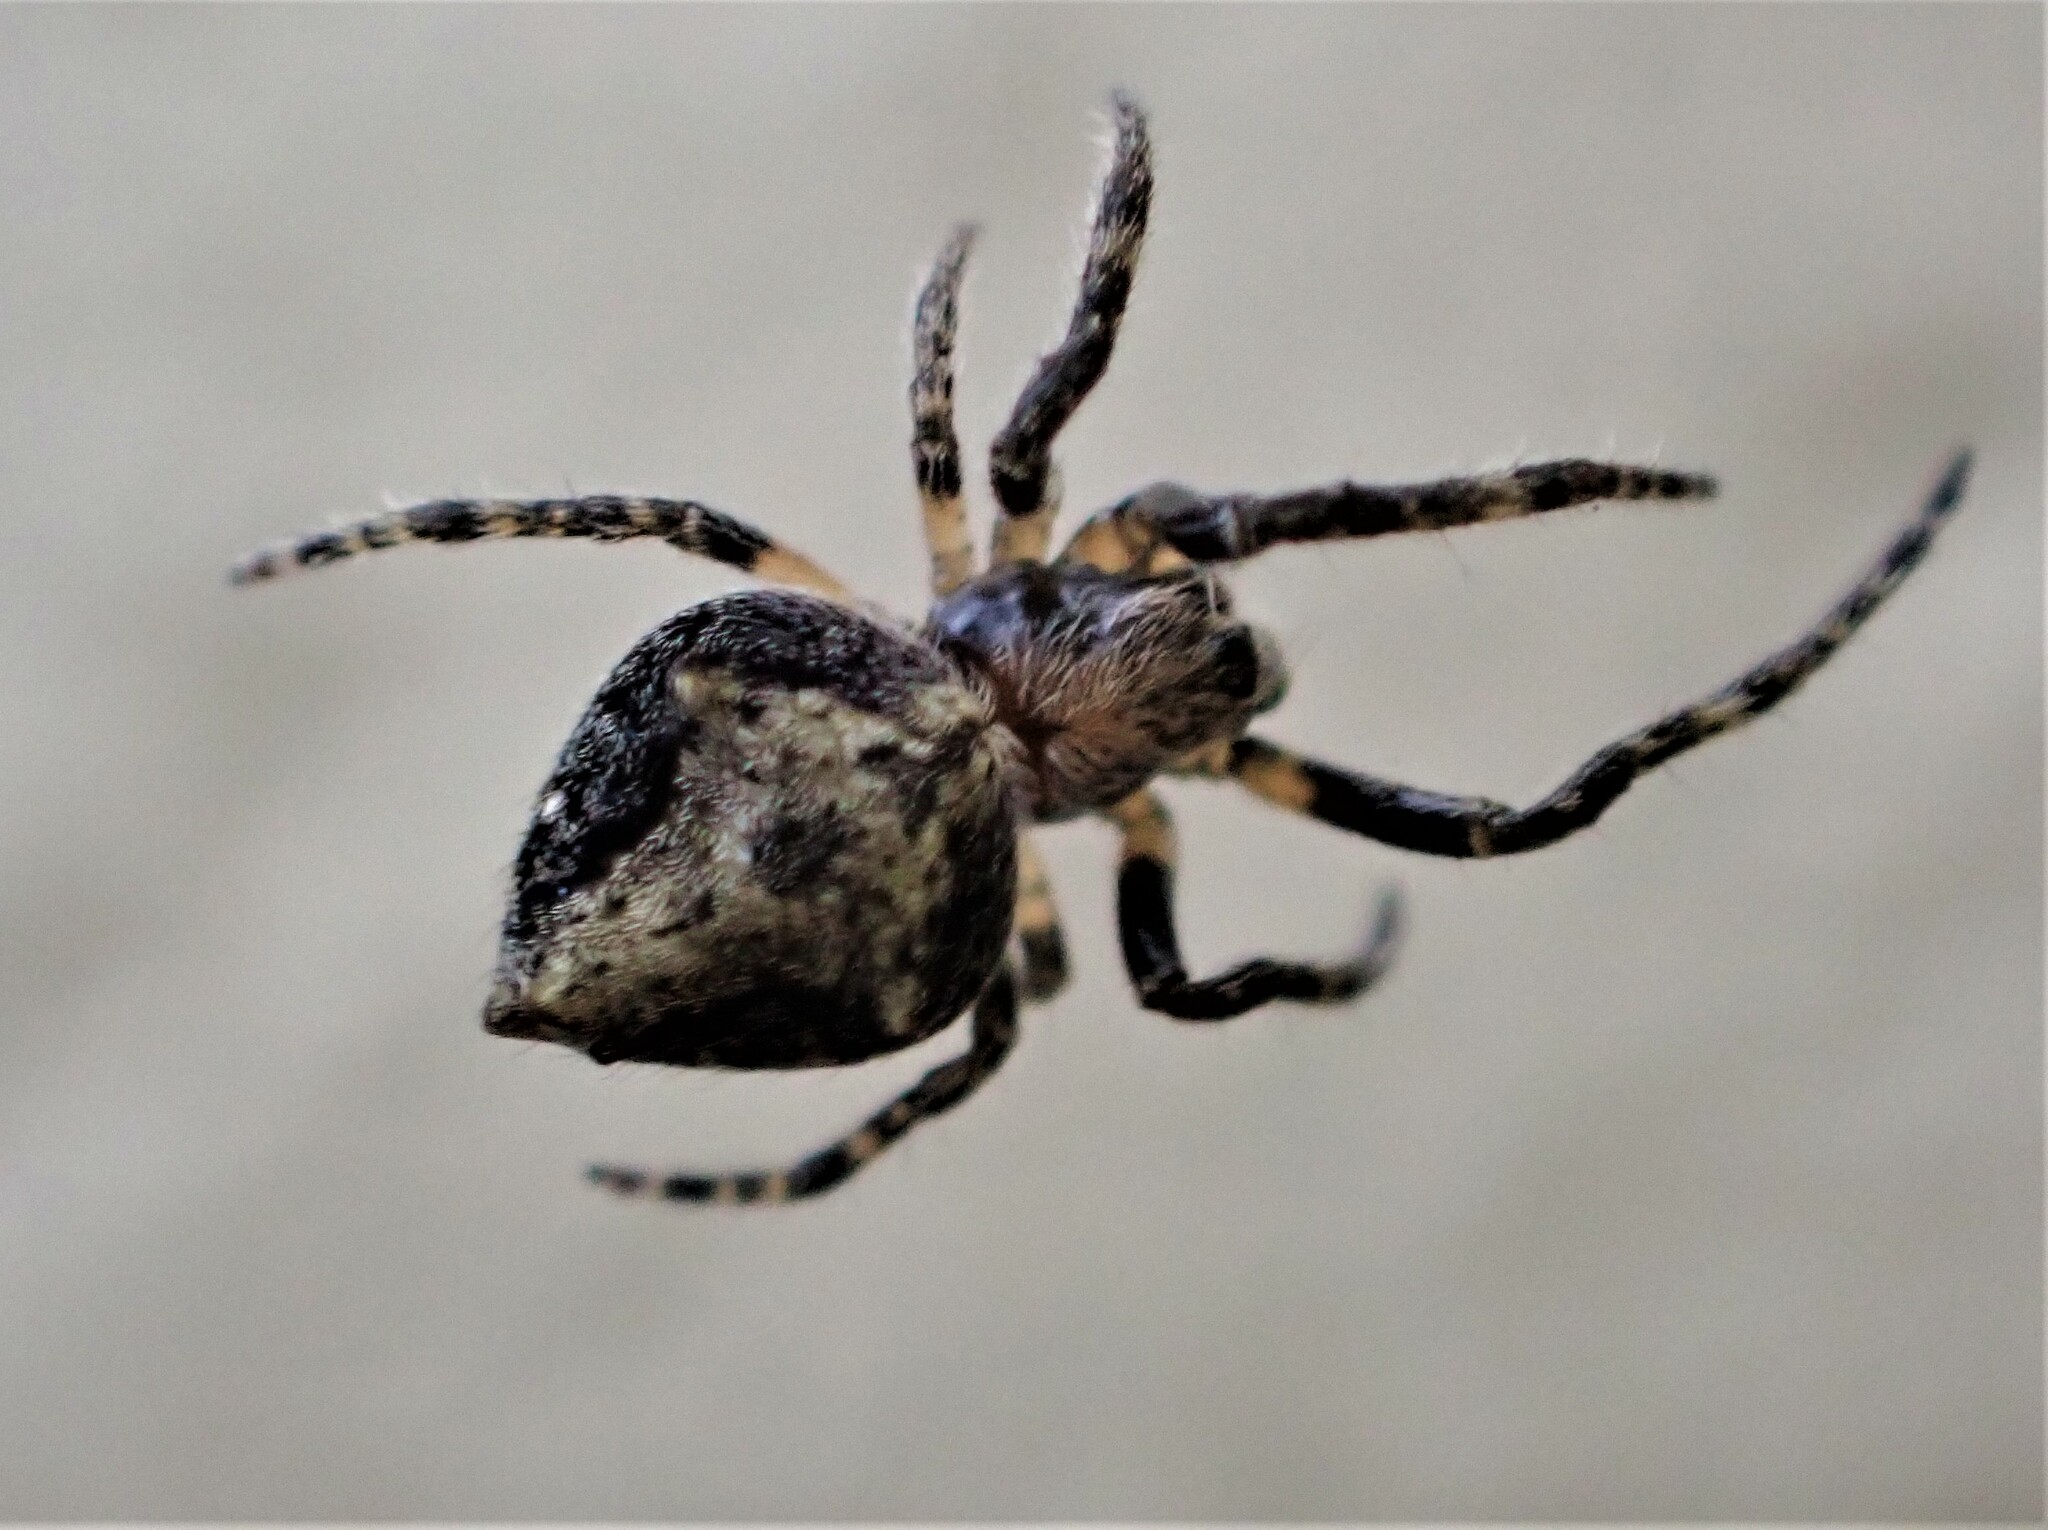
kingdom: Animalia
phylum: Arthropoda
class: Arachnida
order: Araneae
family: Araneidae
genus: Eriophora
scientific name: Eriophora pustulosa
